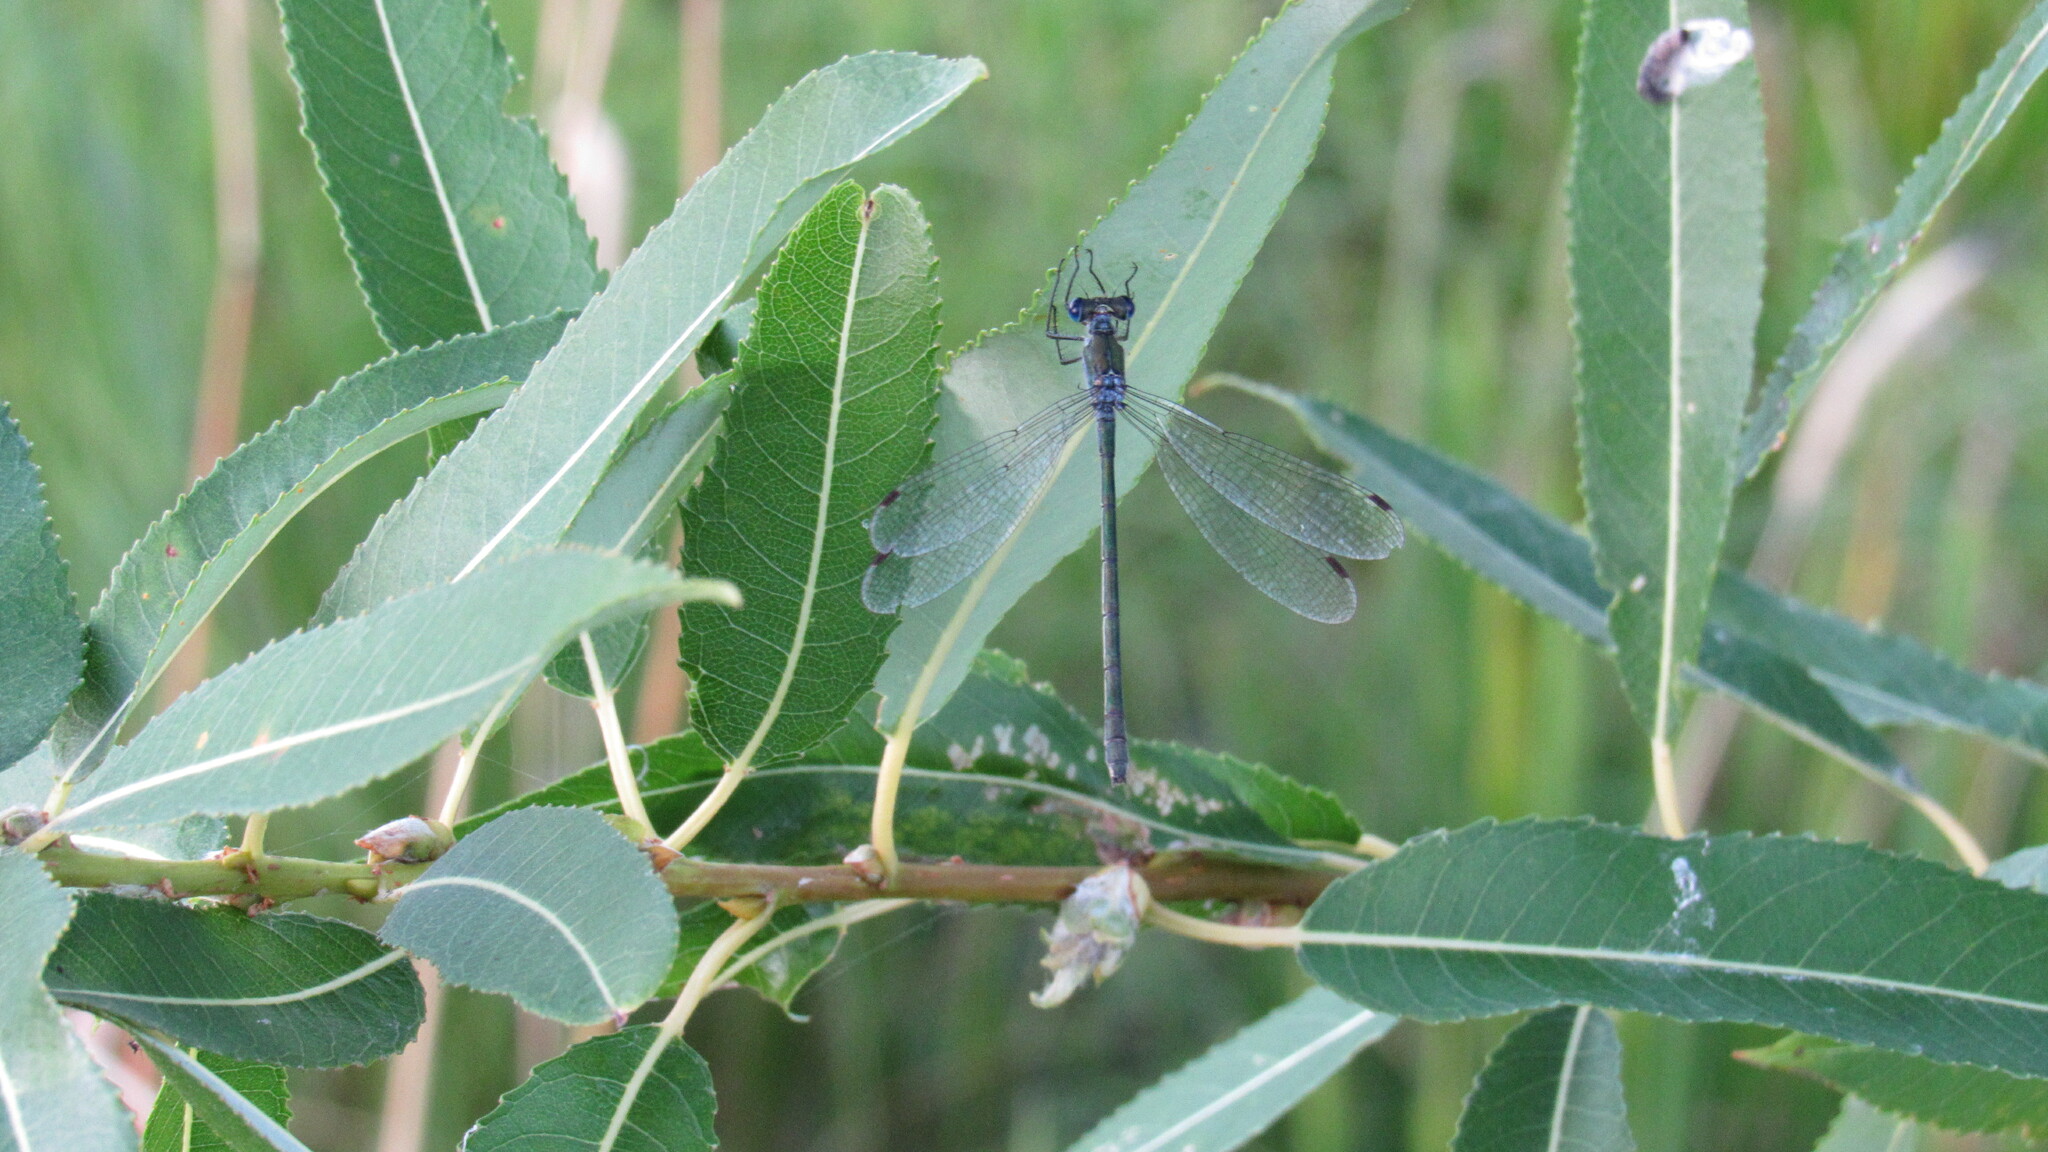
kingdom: Animalia
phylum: Arthropoda
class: Insecta
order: Odonata
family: Lestidae
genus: Lestes
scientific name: Lestes sponsa
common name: Common spreadwing
